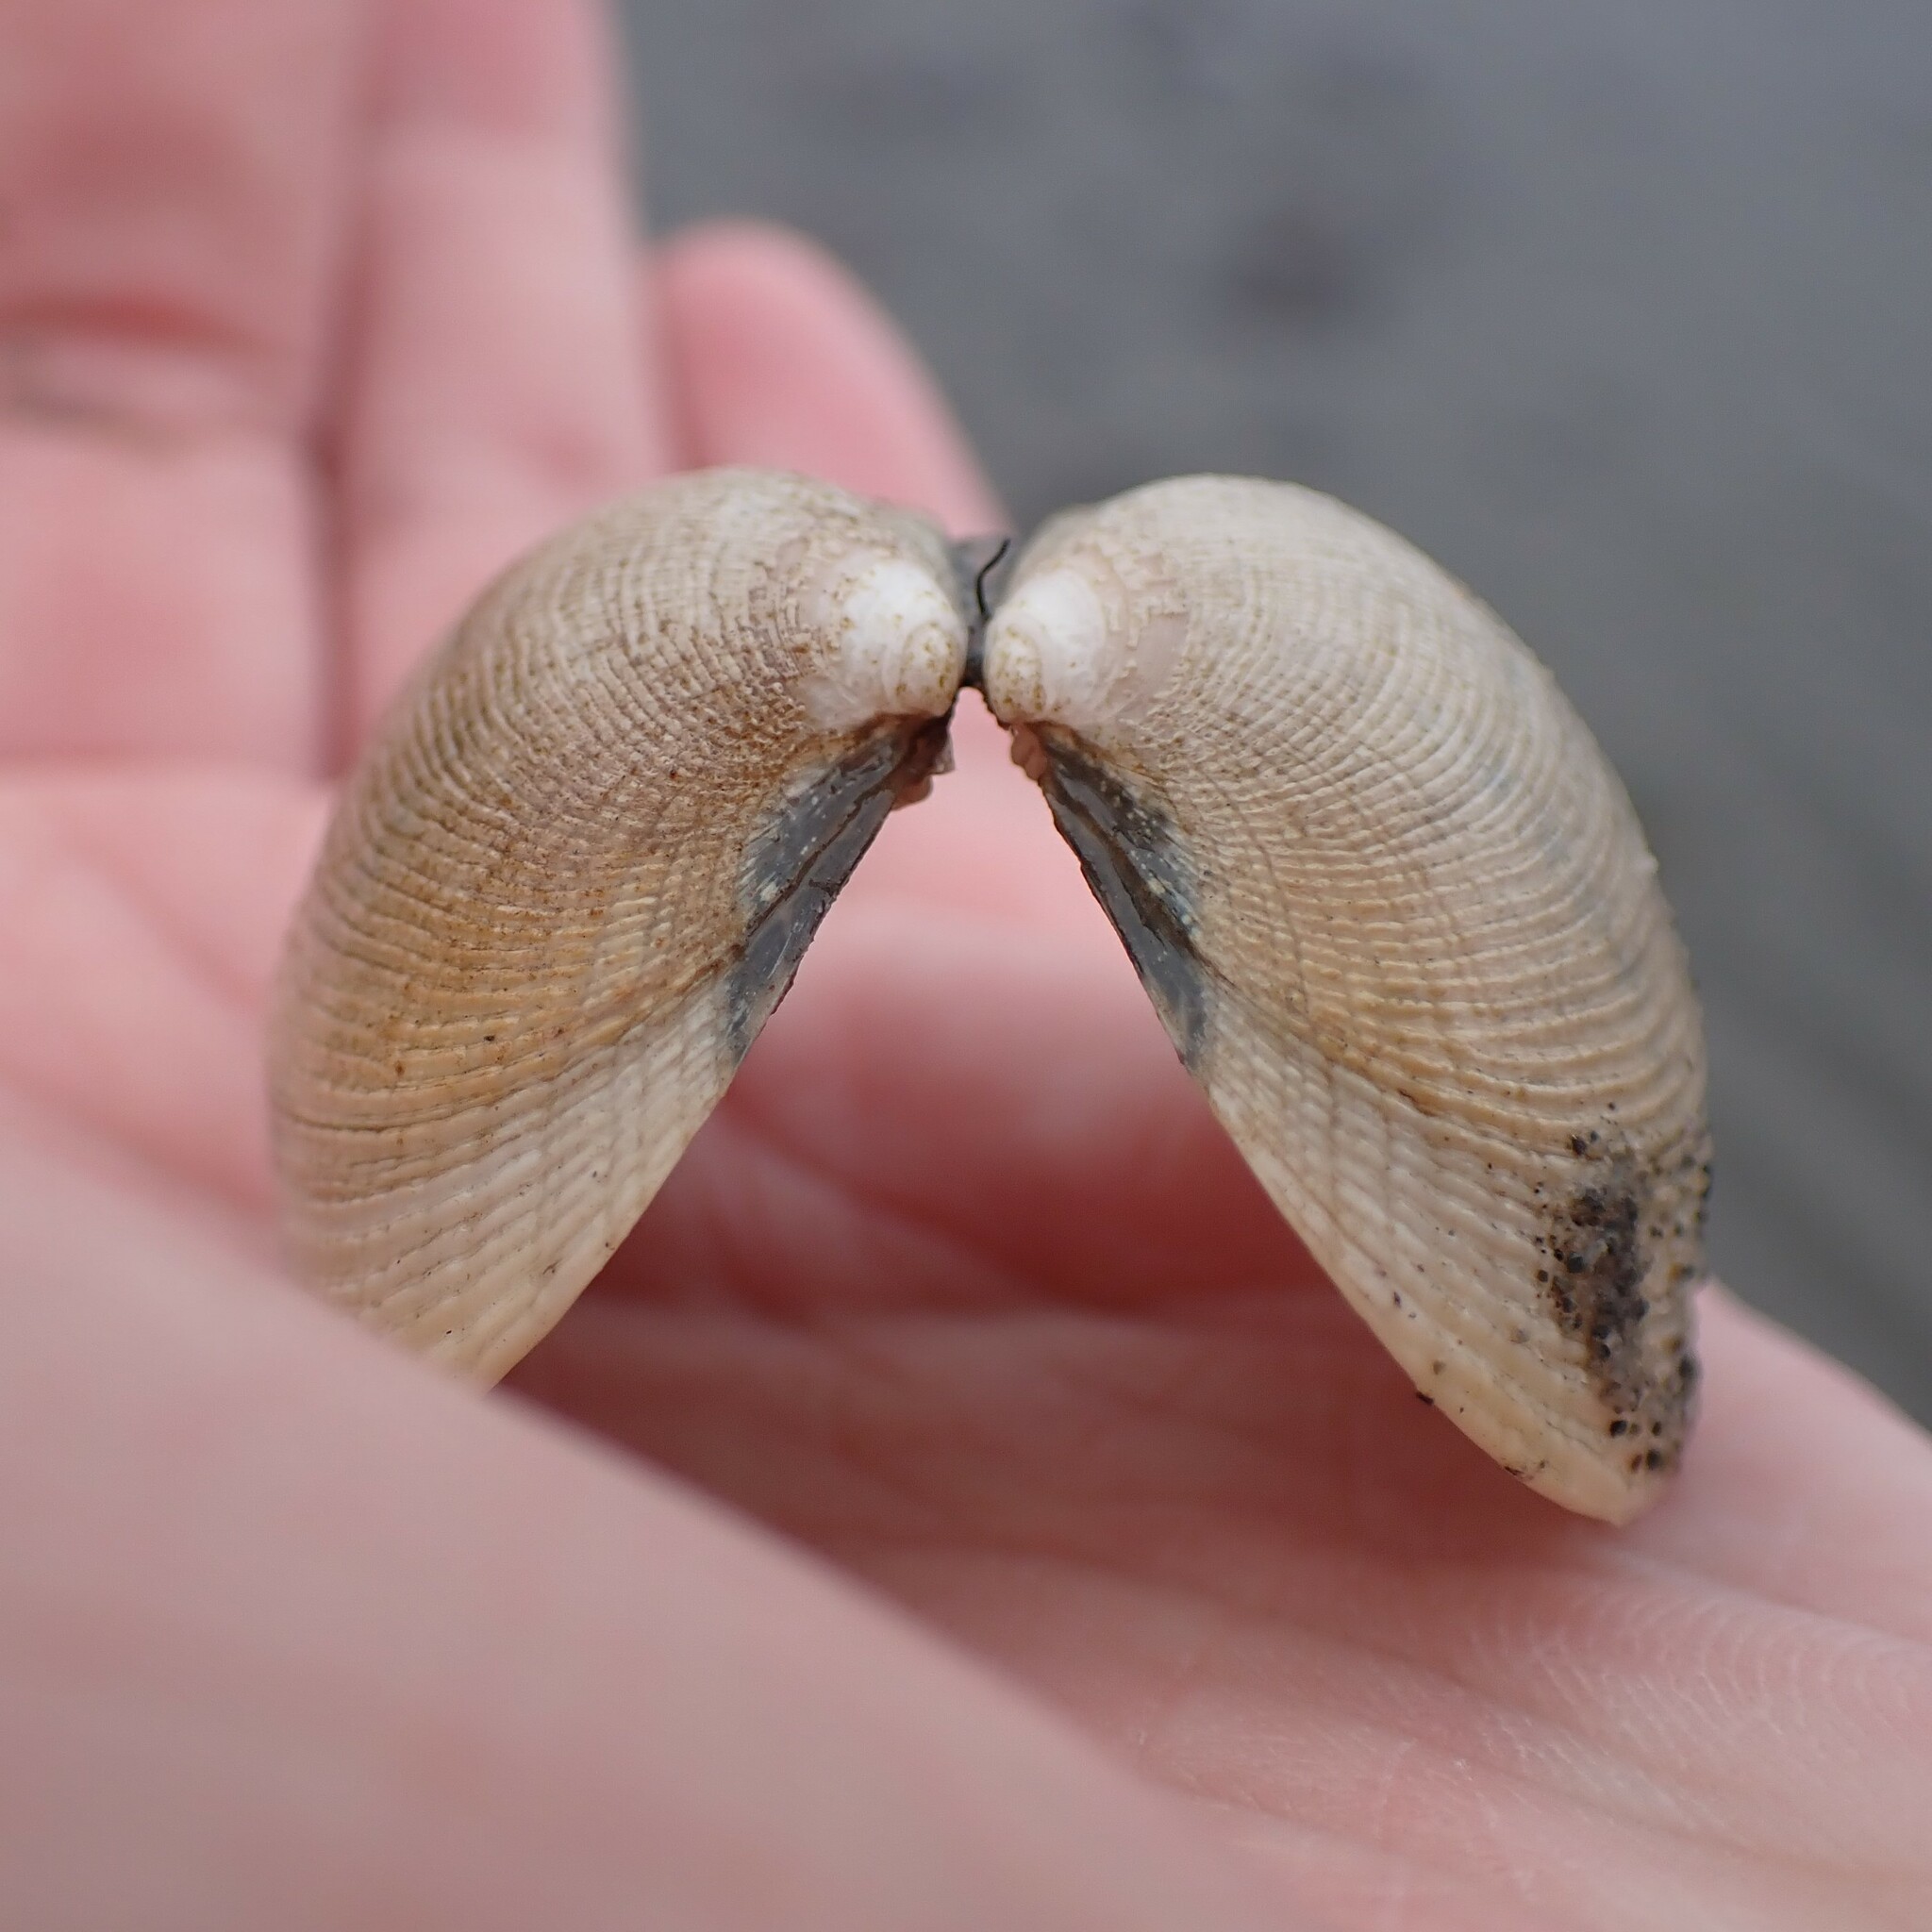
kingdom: Animalia
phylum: Mollusca
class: Bivalvia
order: Venerida
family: Veneridae
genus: Ruditapes
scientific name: Ruditapes philippinarum
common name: Manila clam
